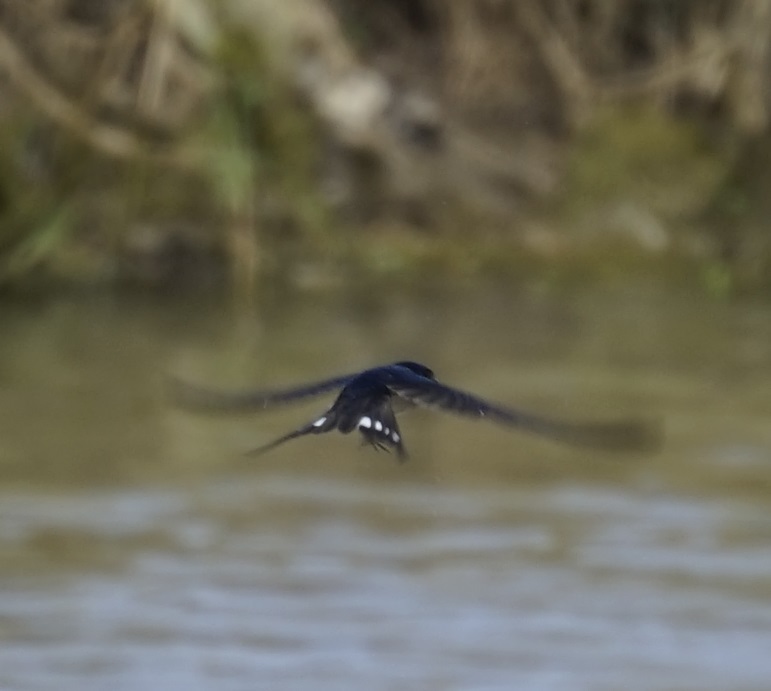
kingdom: Animalia
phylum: Chordata
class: Aves
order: Passeriformes
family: Hirundinidae
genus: Hirundo
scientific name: Hirundo neoxena
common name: Welcome swallow
